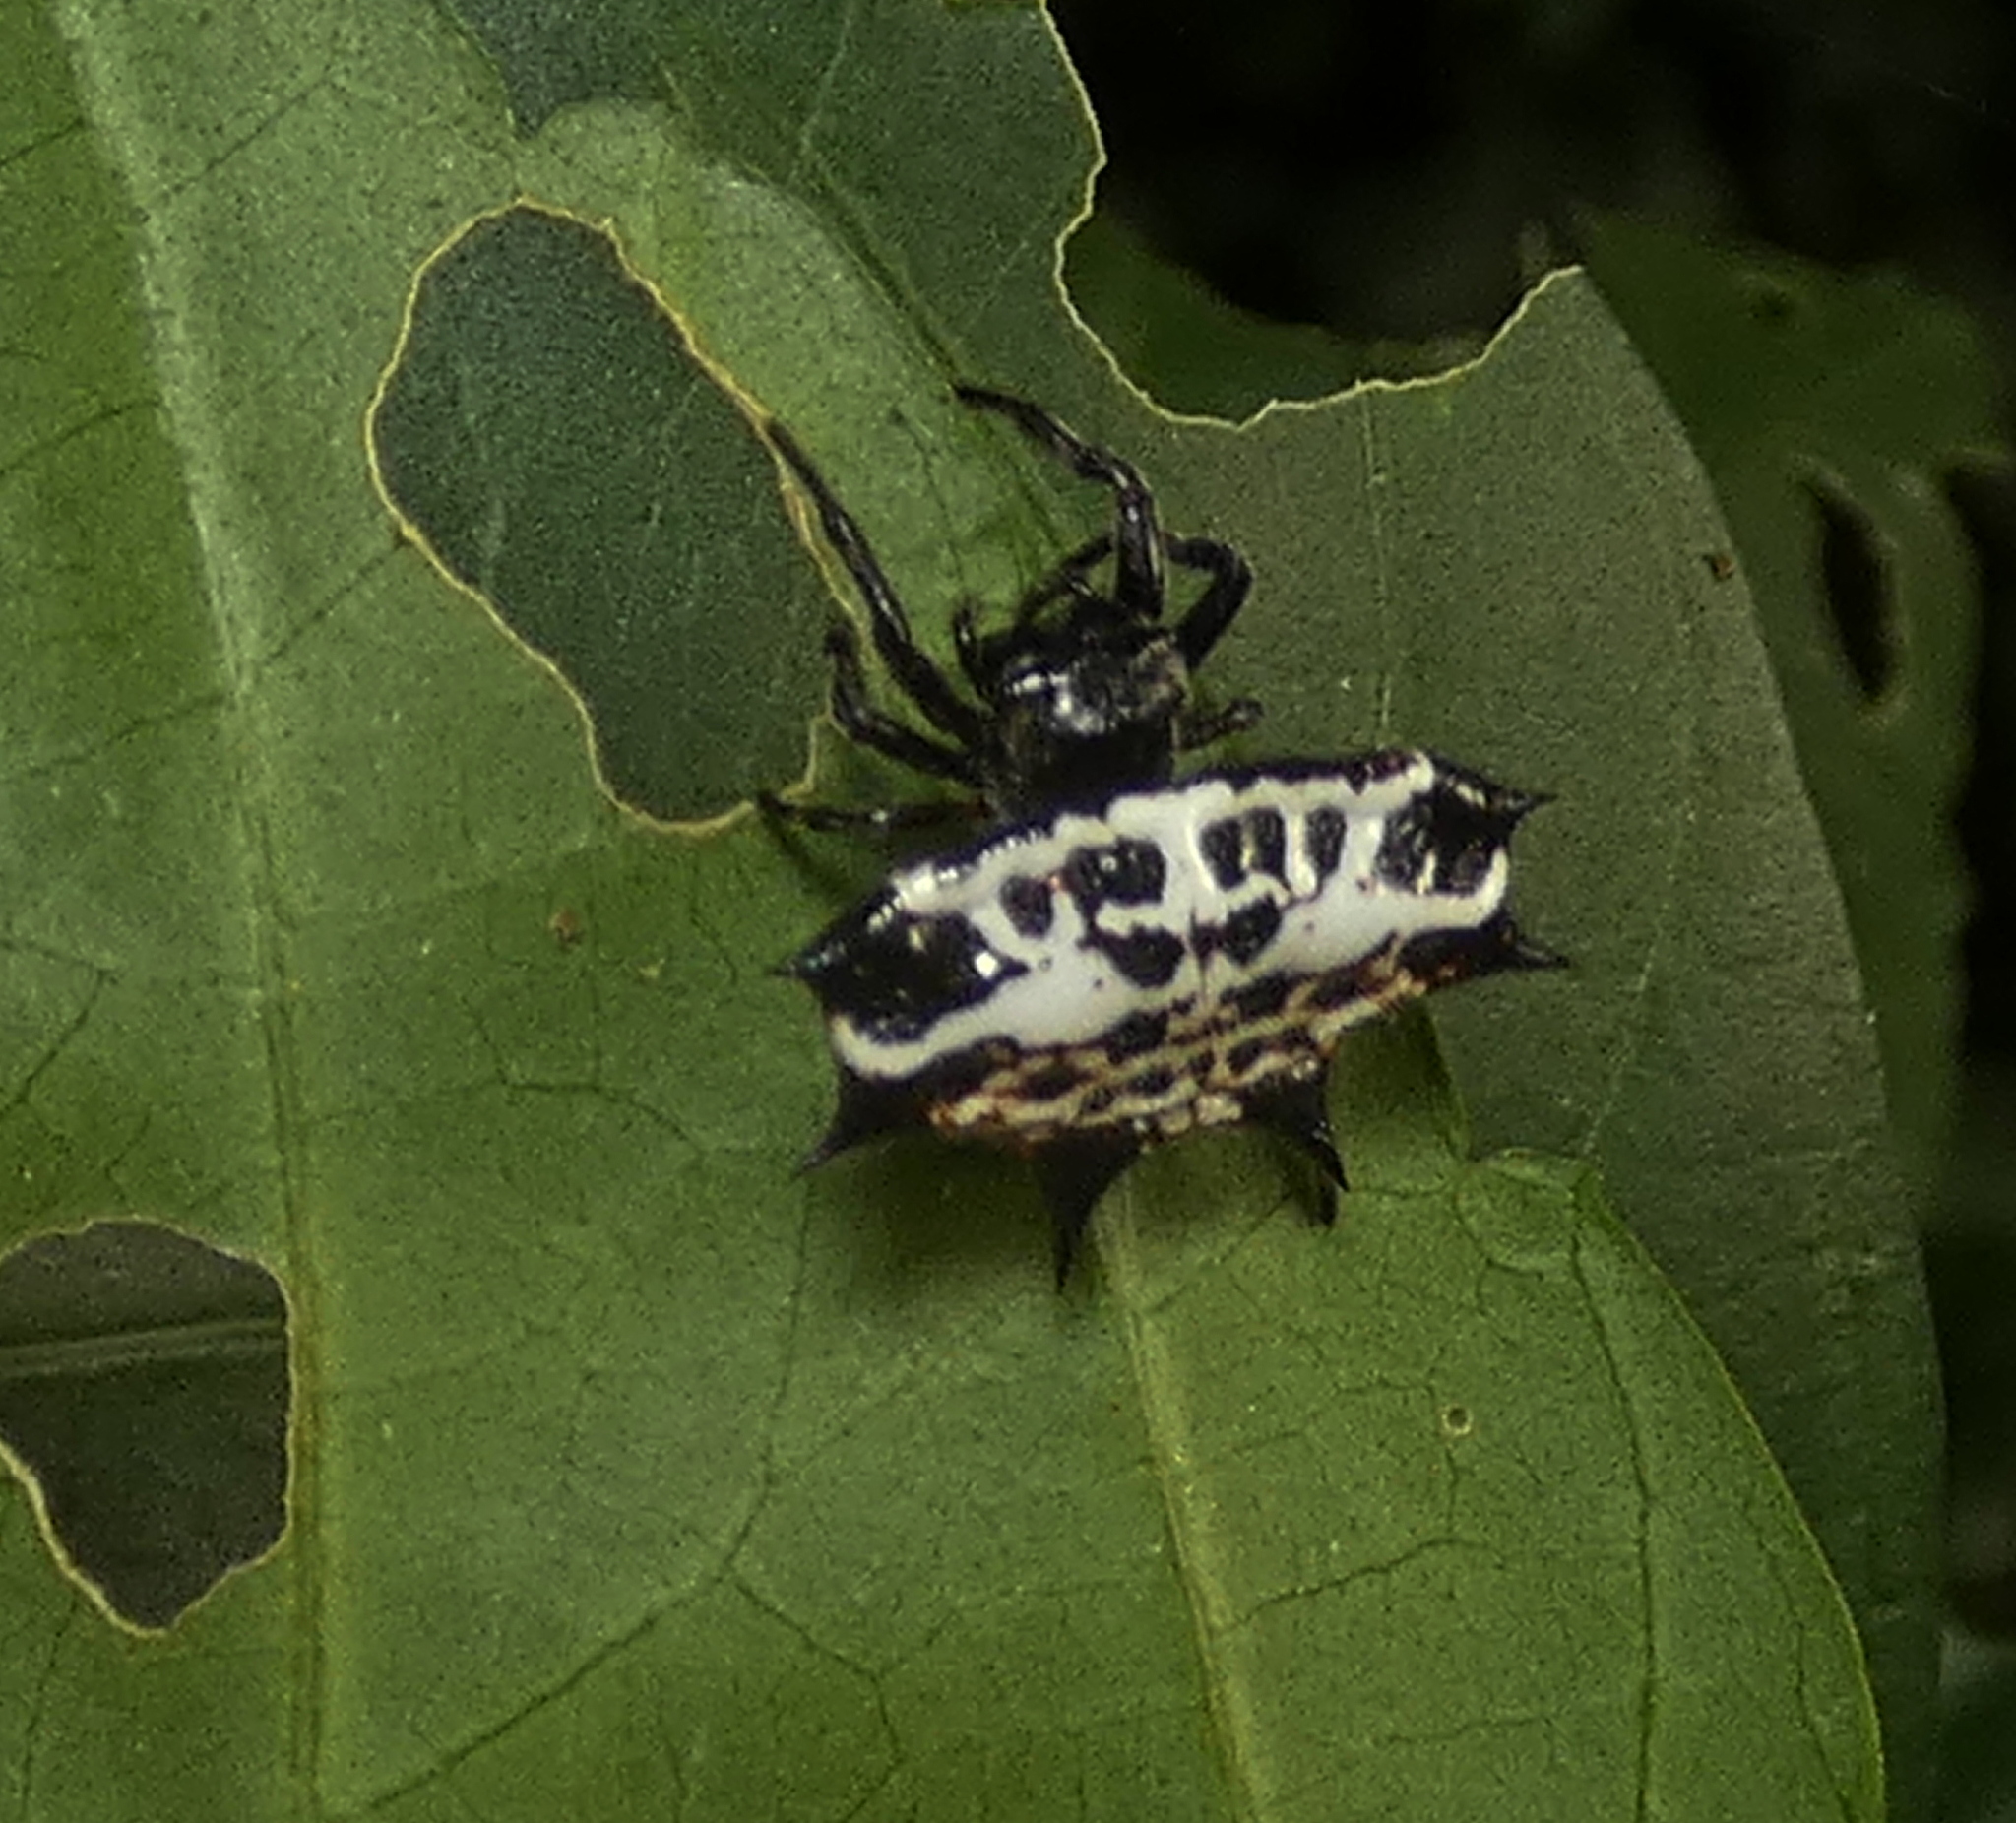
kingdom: Animalia
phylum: Arthropoda
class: Arachnida
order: Araneae
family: Araneidae
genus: Gasteracantha
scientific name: Gasteracantha cancriformis
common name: Orb weavers
